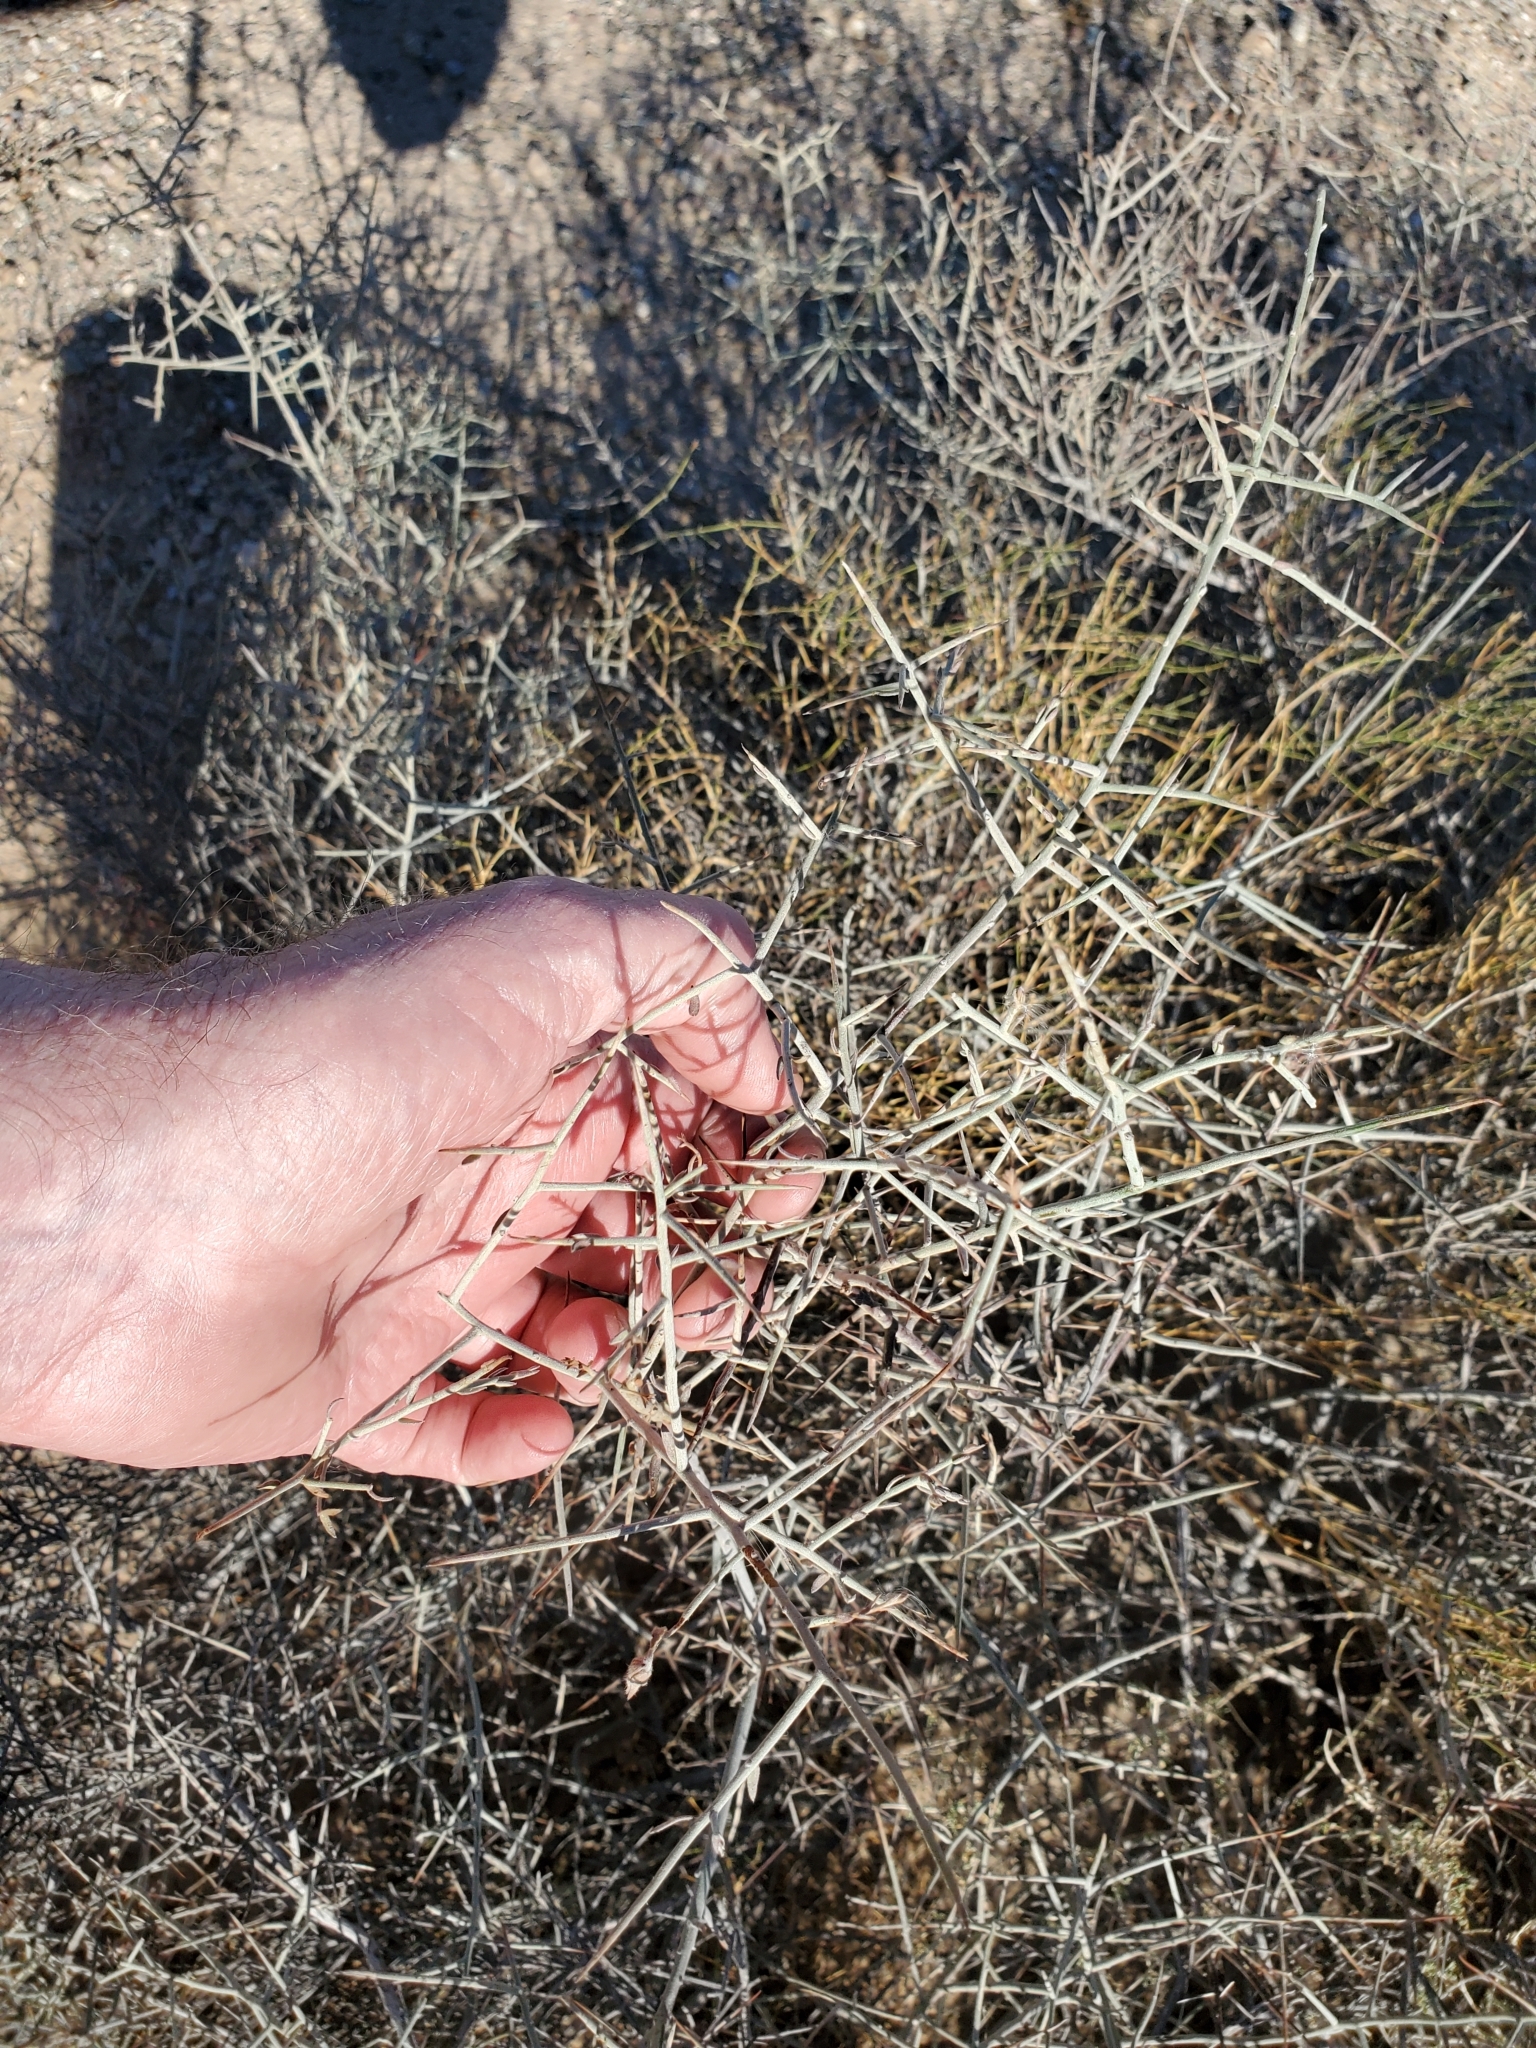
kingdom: Plantae
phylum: Tracheophyta
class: Magnoliopsida
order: Zygophyllales
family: Krameriaceae
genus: Krameria
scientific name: Krameria bicolor
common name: White ratany
